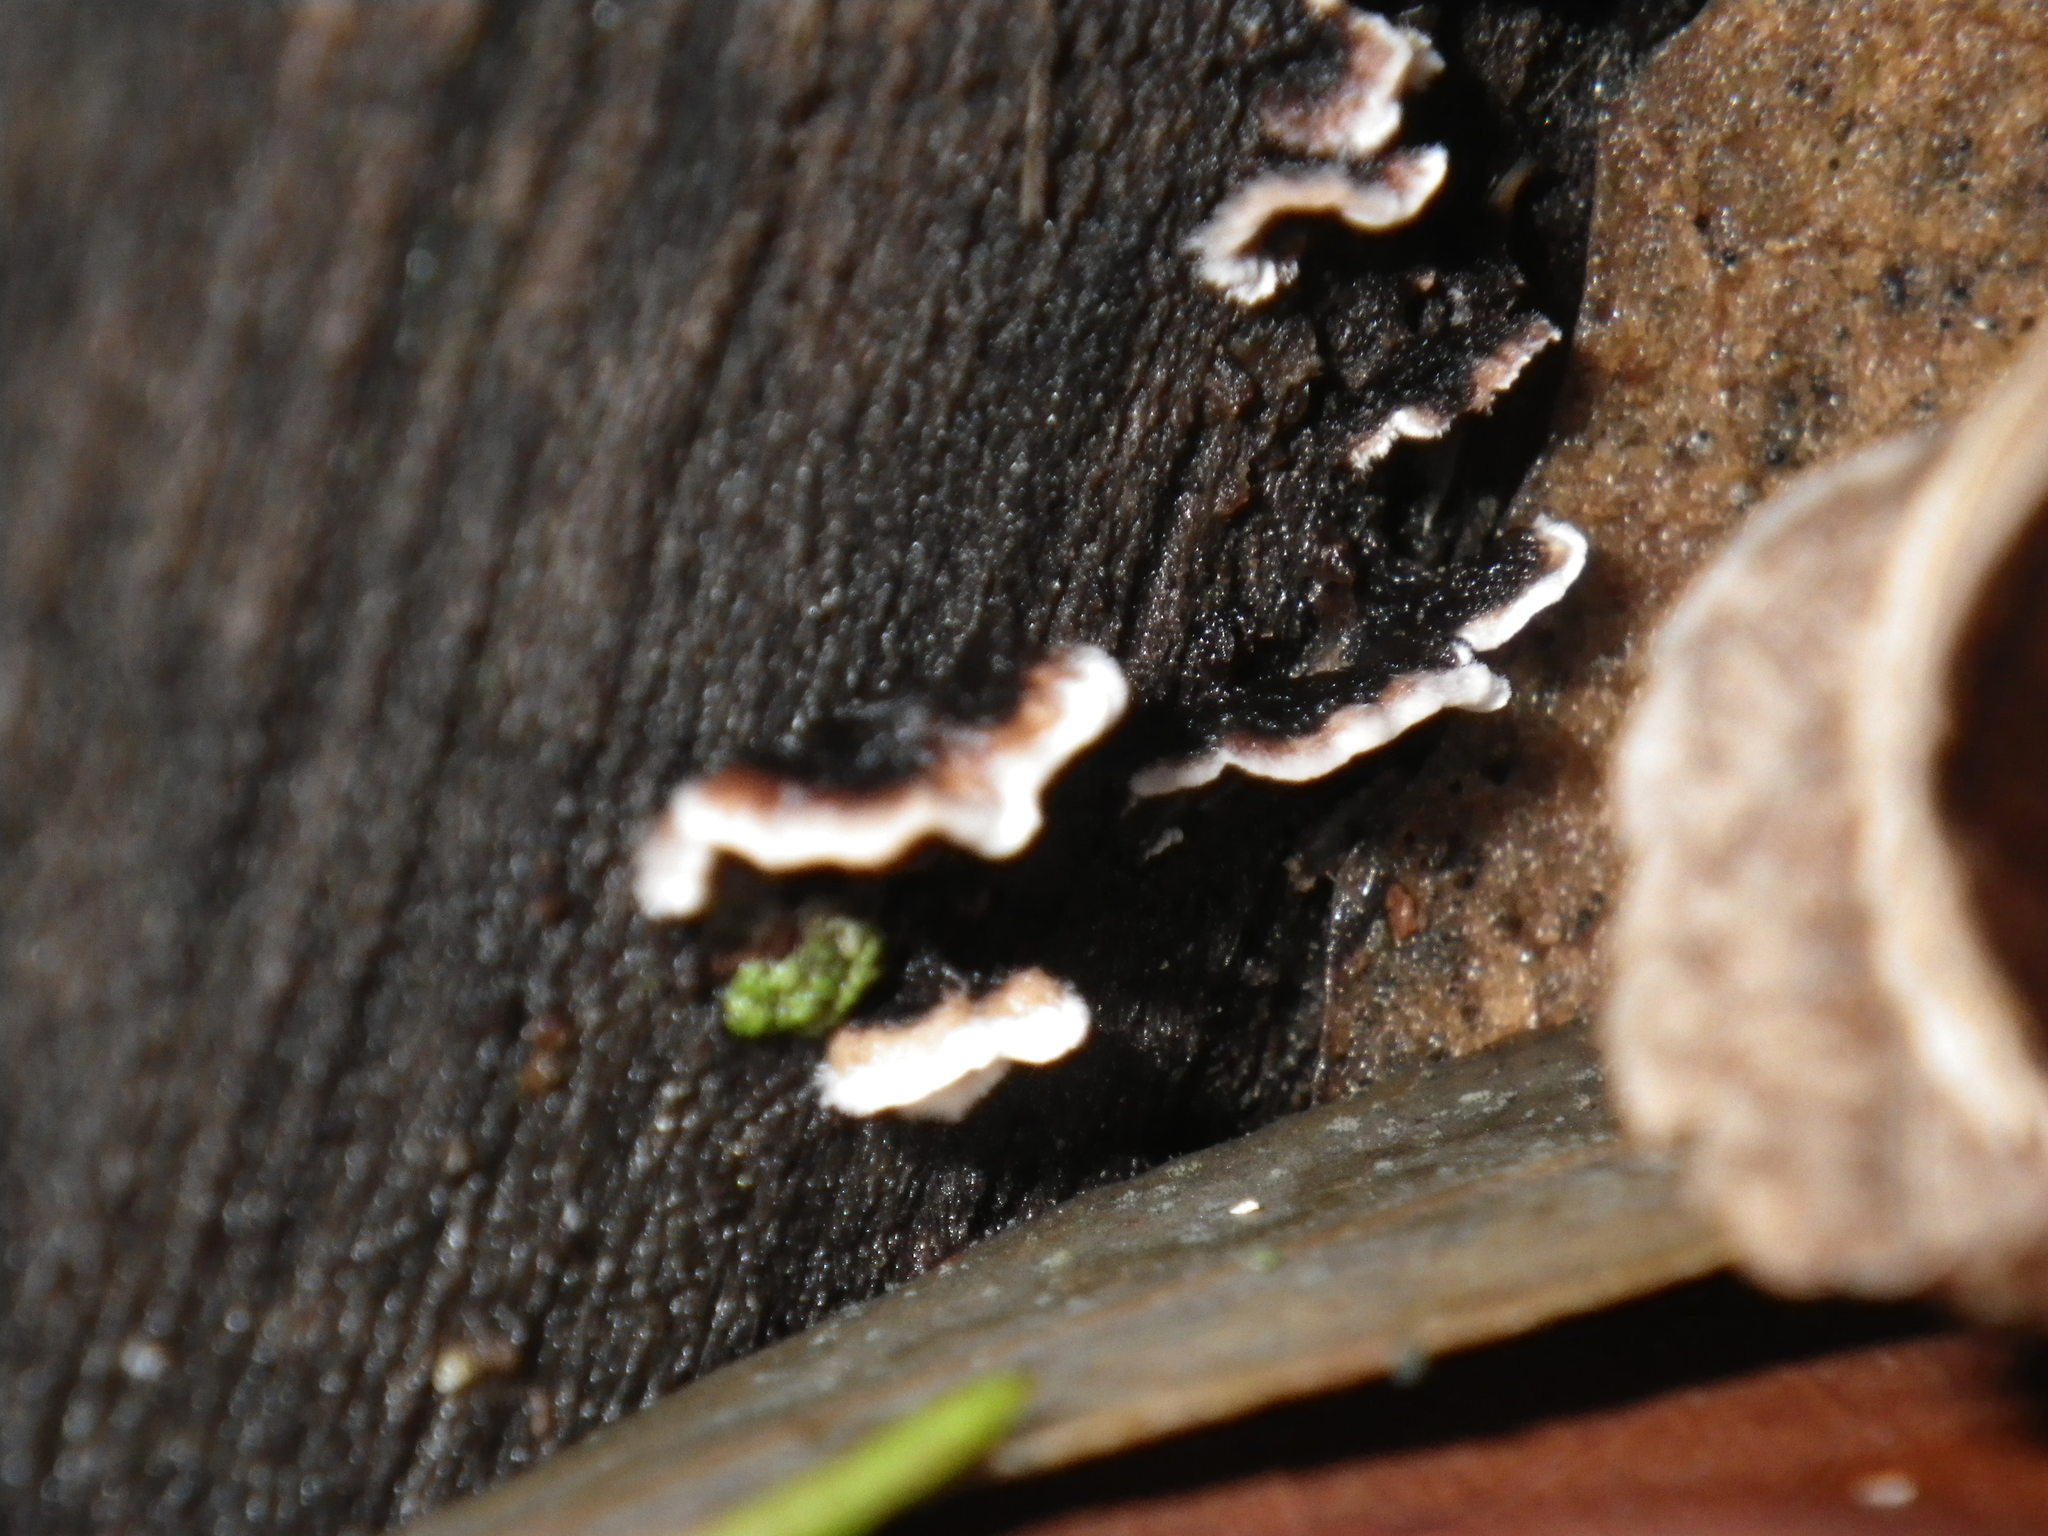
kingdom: Fungi
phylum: Basidiomycota
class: Agaricomycetes
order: Polyporales
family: Polyporaceae
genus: Trametes
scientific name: Trametes versicolor
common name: Turkeytail
